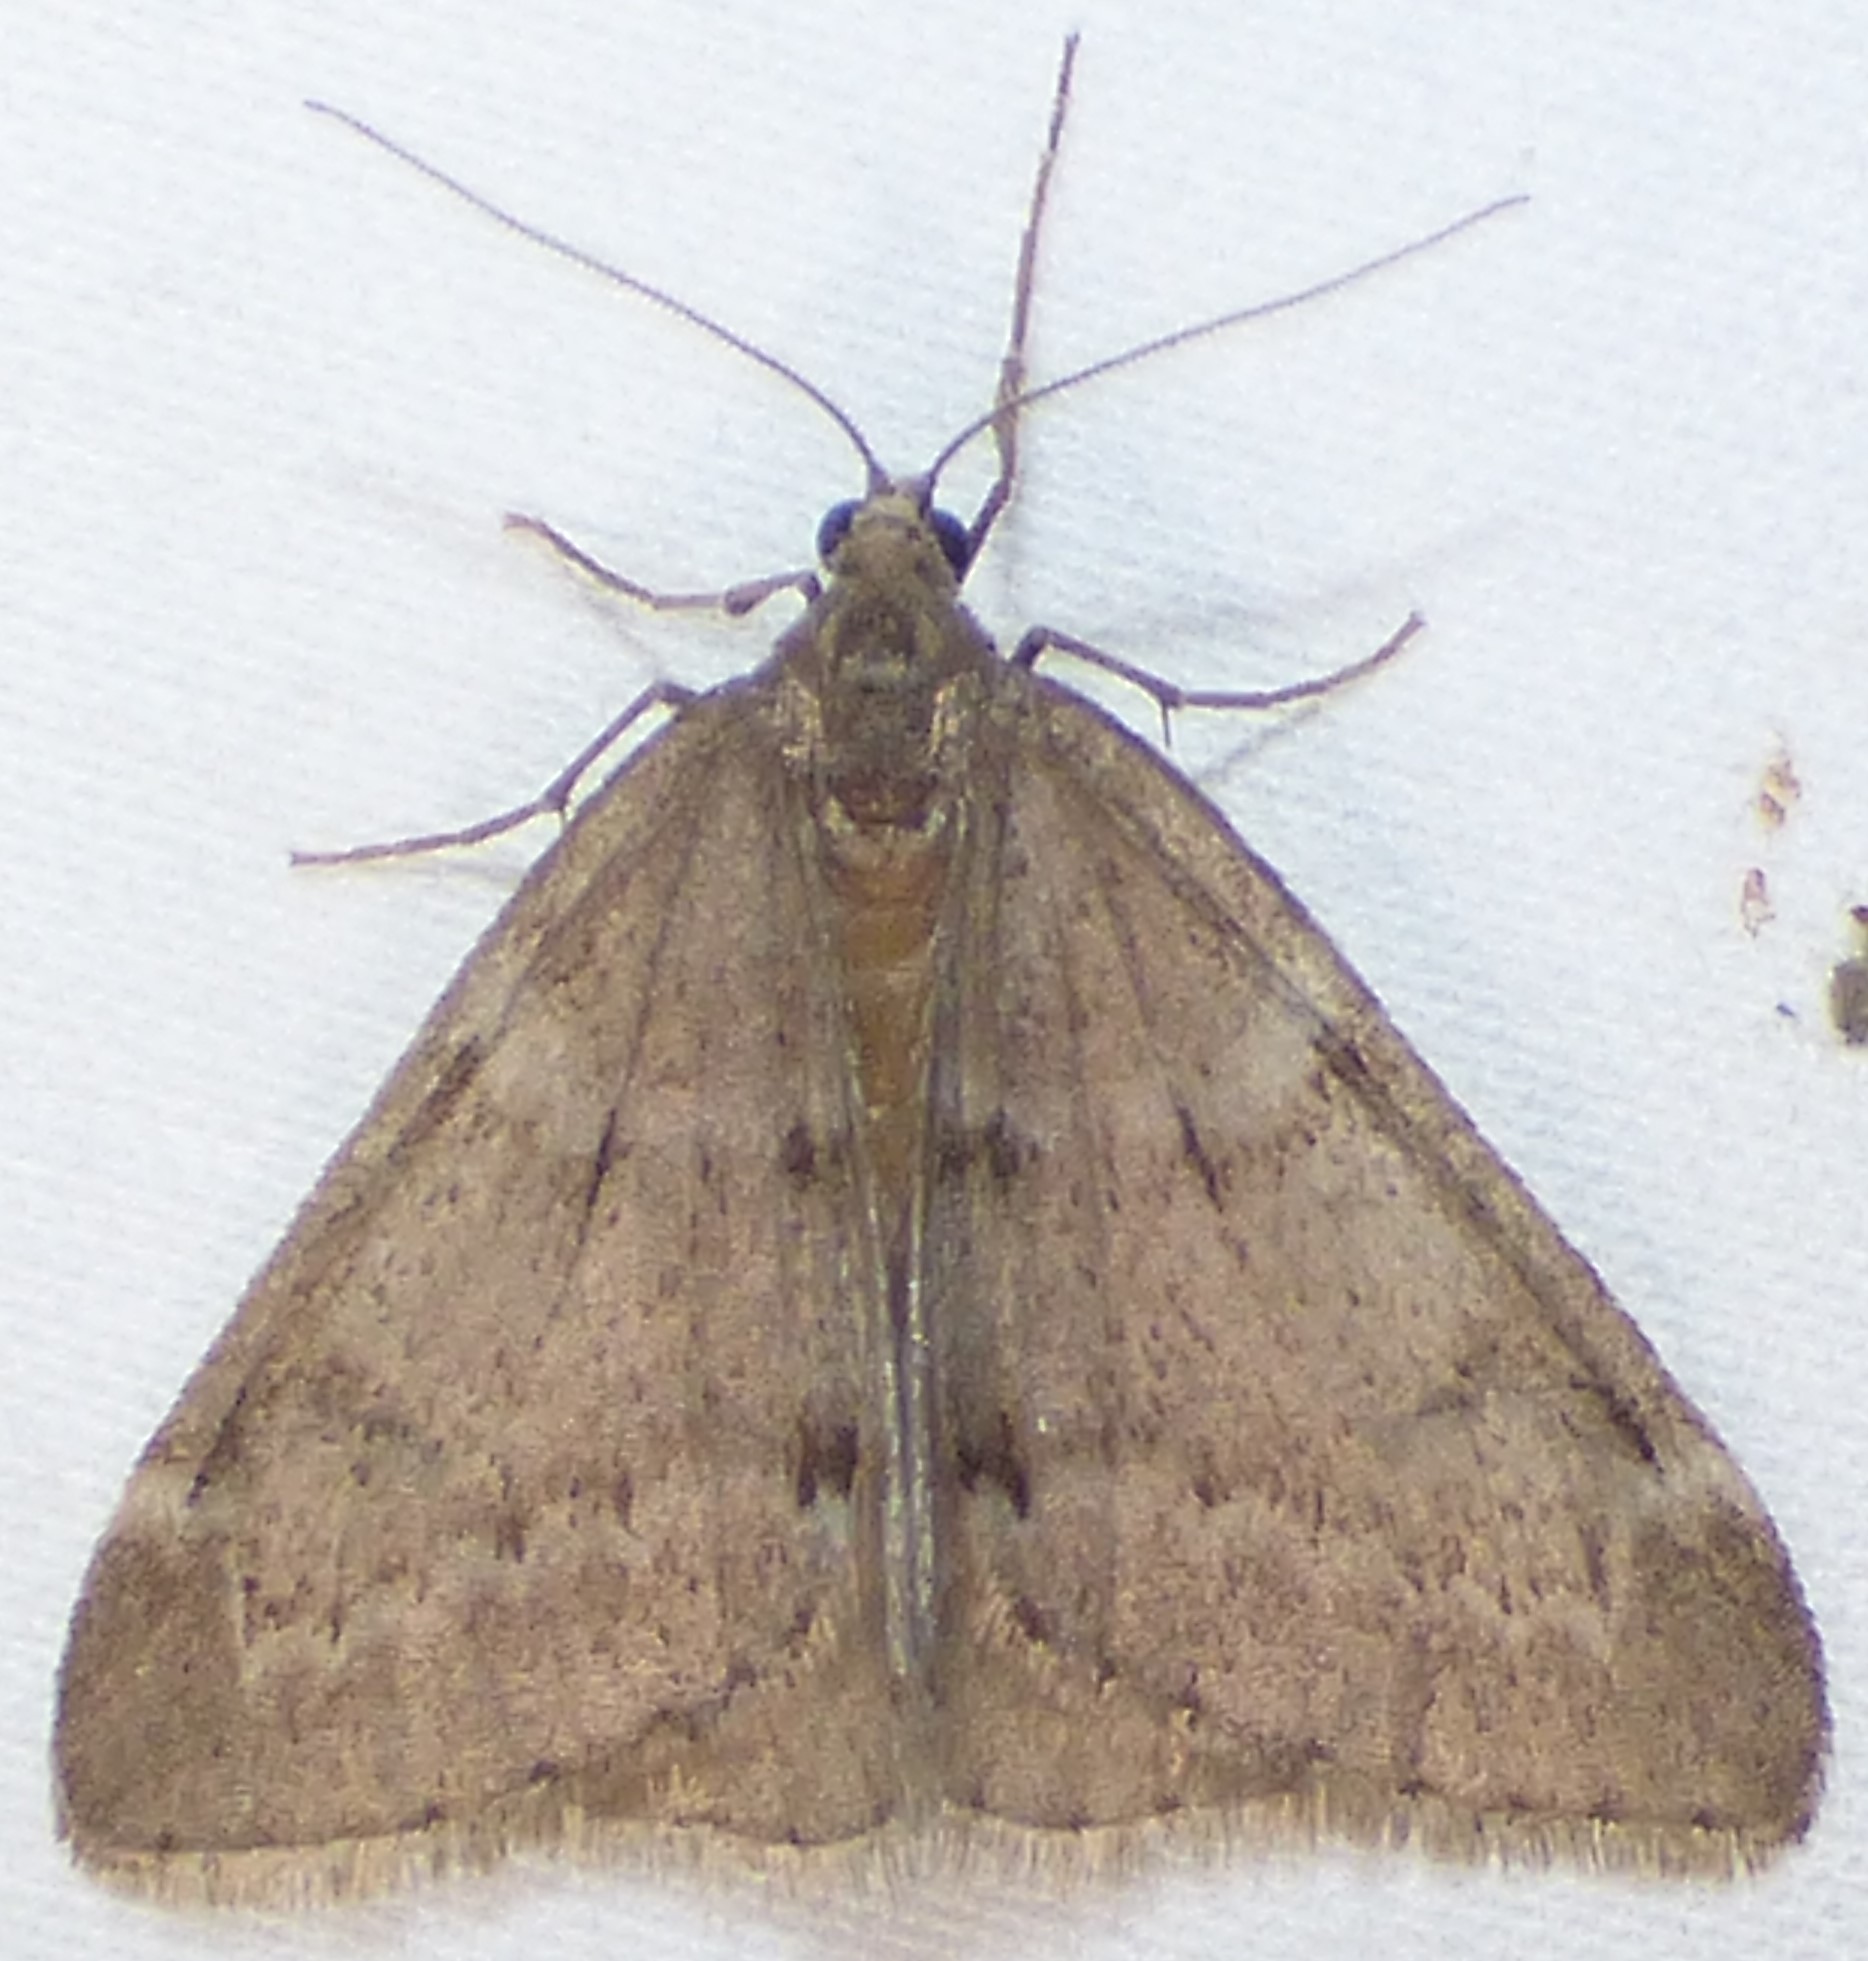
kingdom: Animalia
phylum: Arthropoda
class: Insecta
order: Lepidoptera
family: Geometridae
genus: Alsophila
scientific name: Alsophila pometaria
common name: Fall cankerworm
